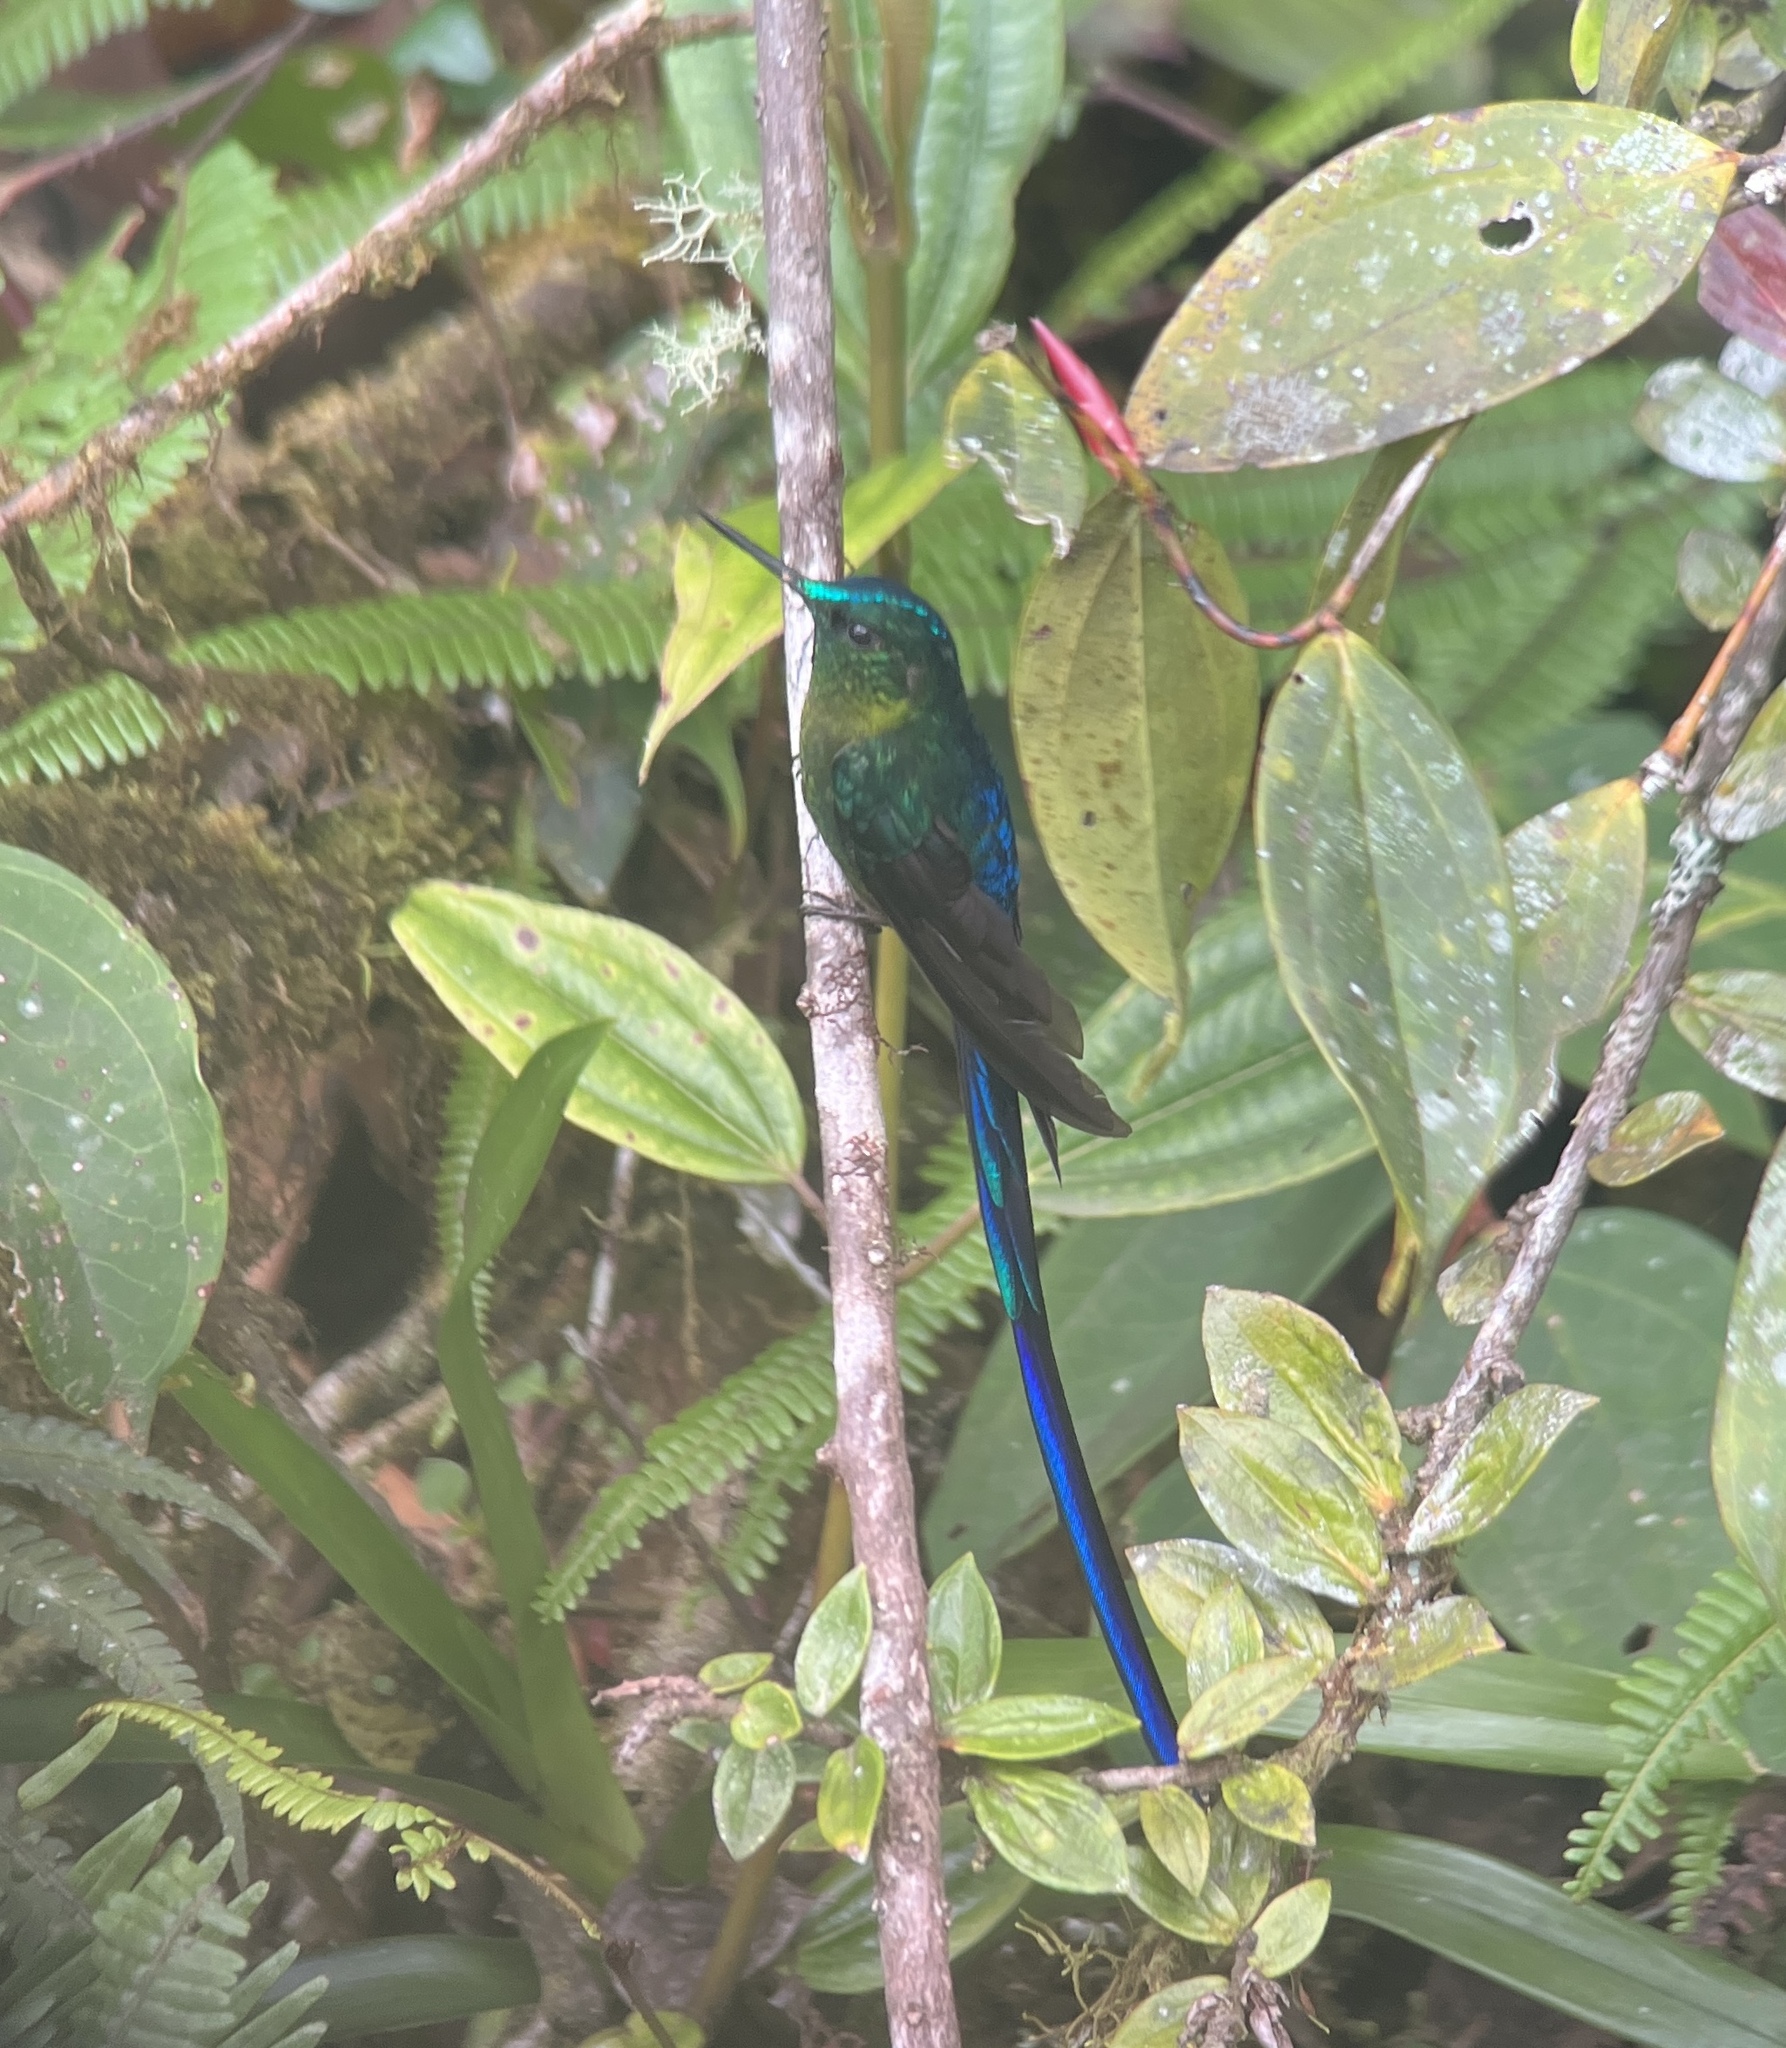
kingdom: Animalia
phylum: Chordata
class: Aves
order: Apodiformes
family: Trochilidae
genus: Aglaiocercus
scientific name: Aglaiocercus coelestis
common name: Violet-tailed sylph
